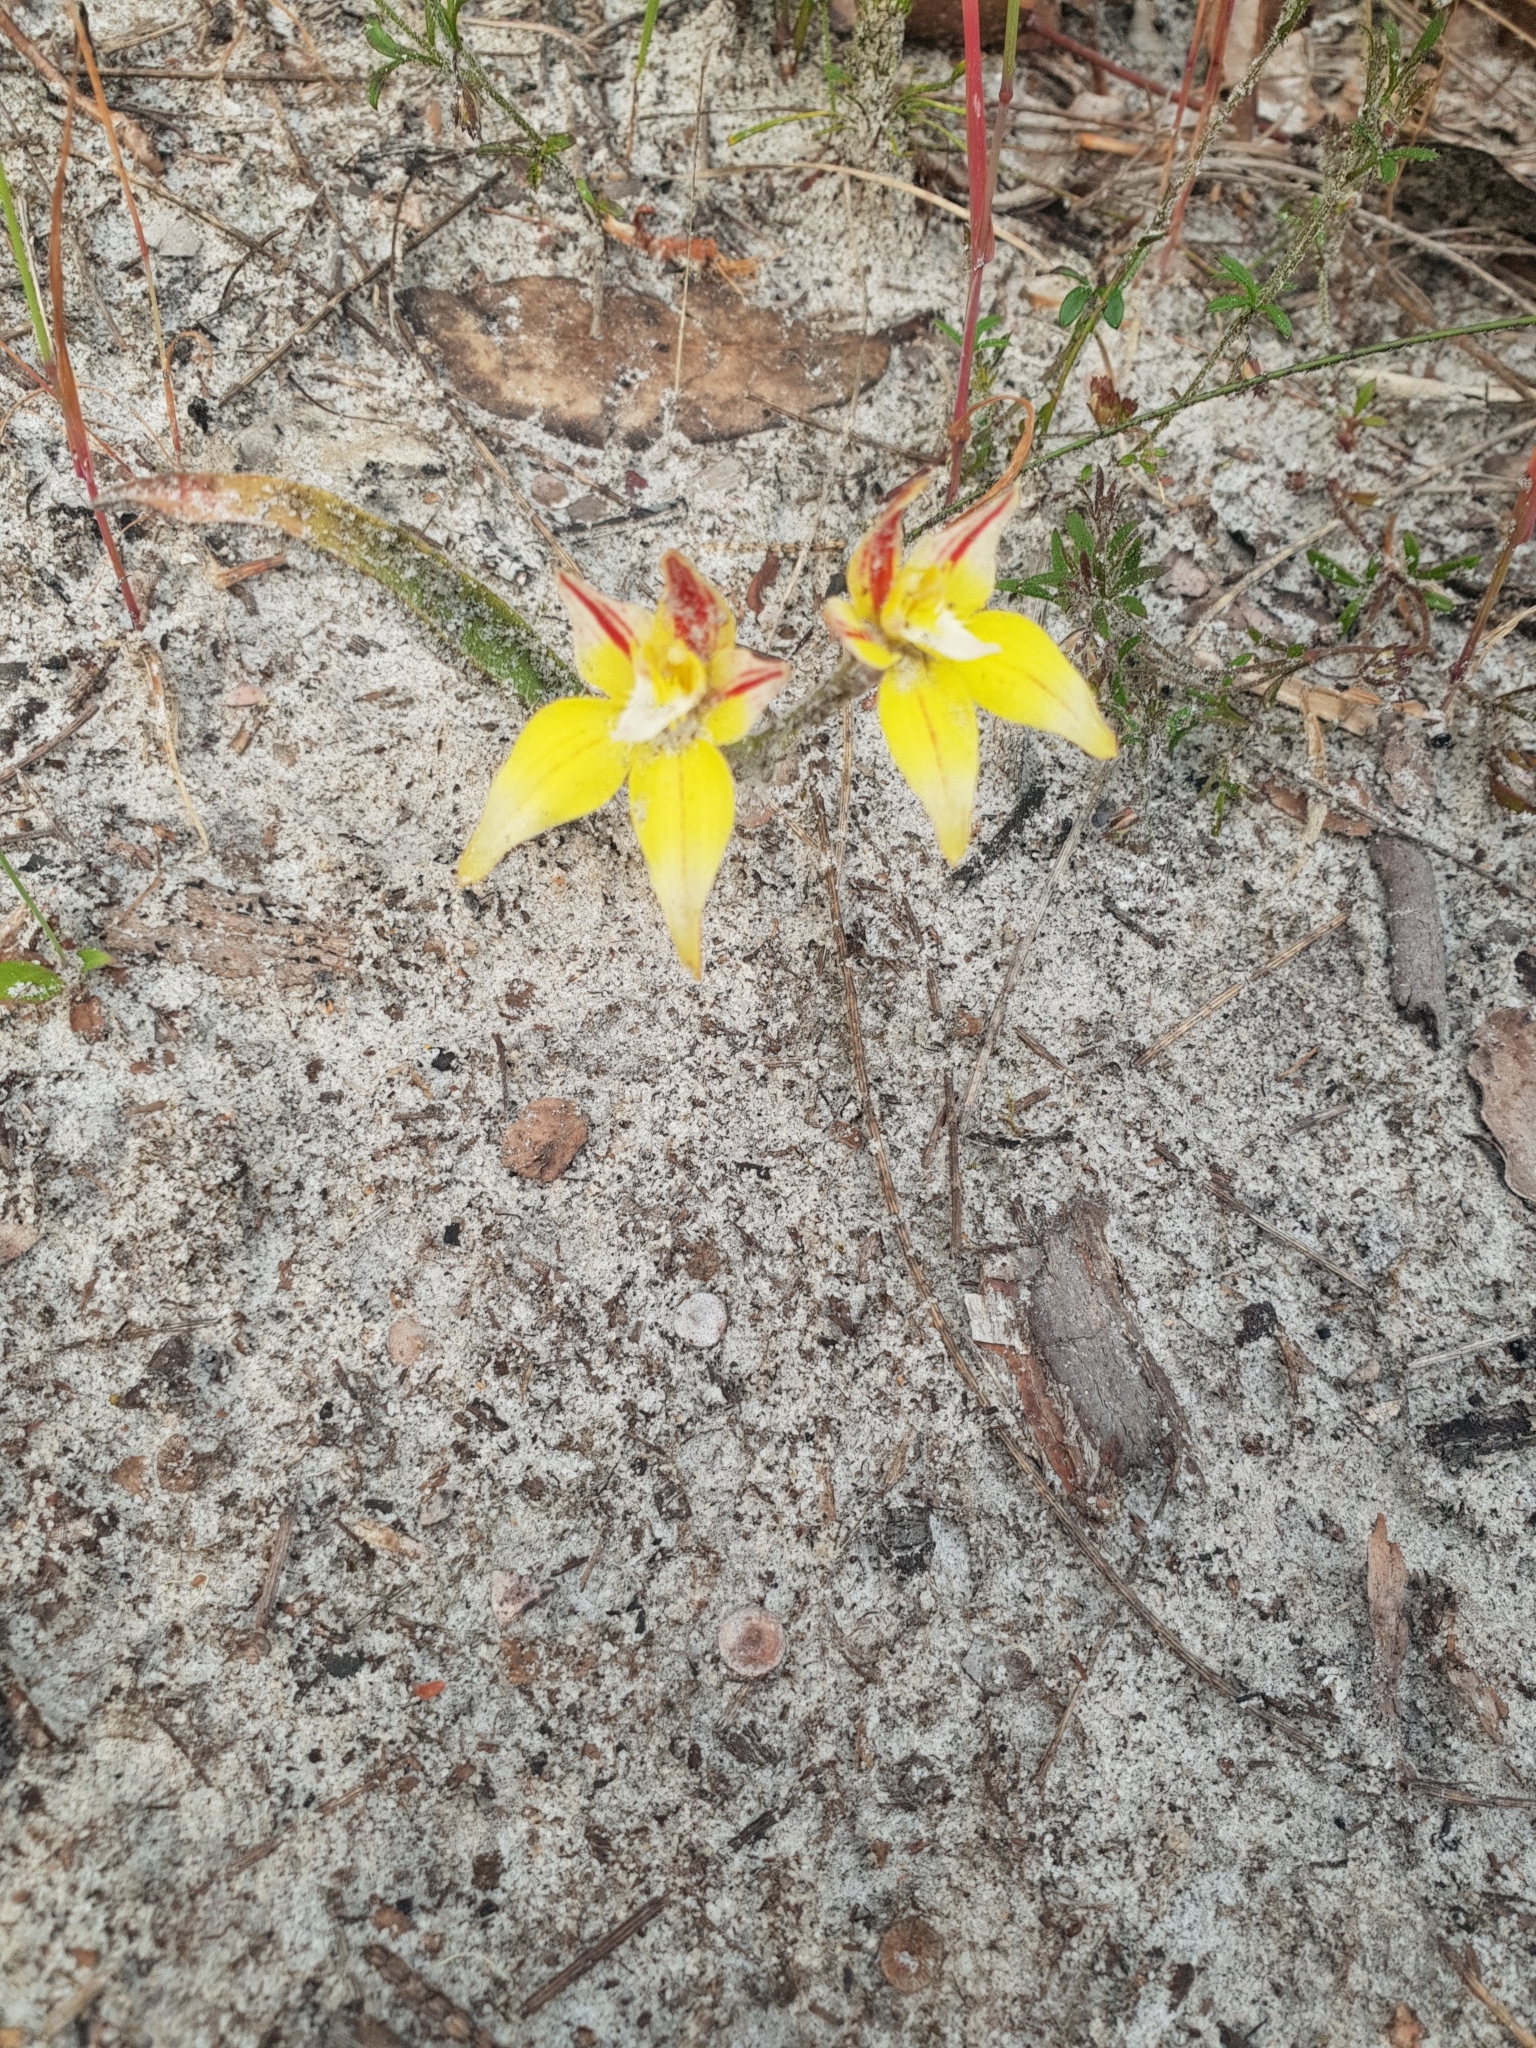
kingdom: Plantae
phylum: Tracheophyta
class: Liliopsida
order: Asparagales
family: Orchidaceae
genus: Caladenia
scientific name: Caladenia flava
